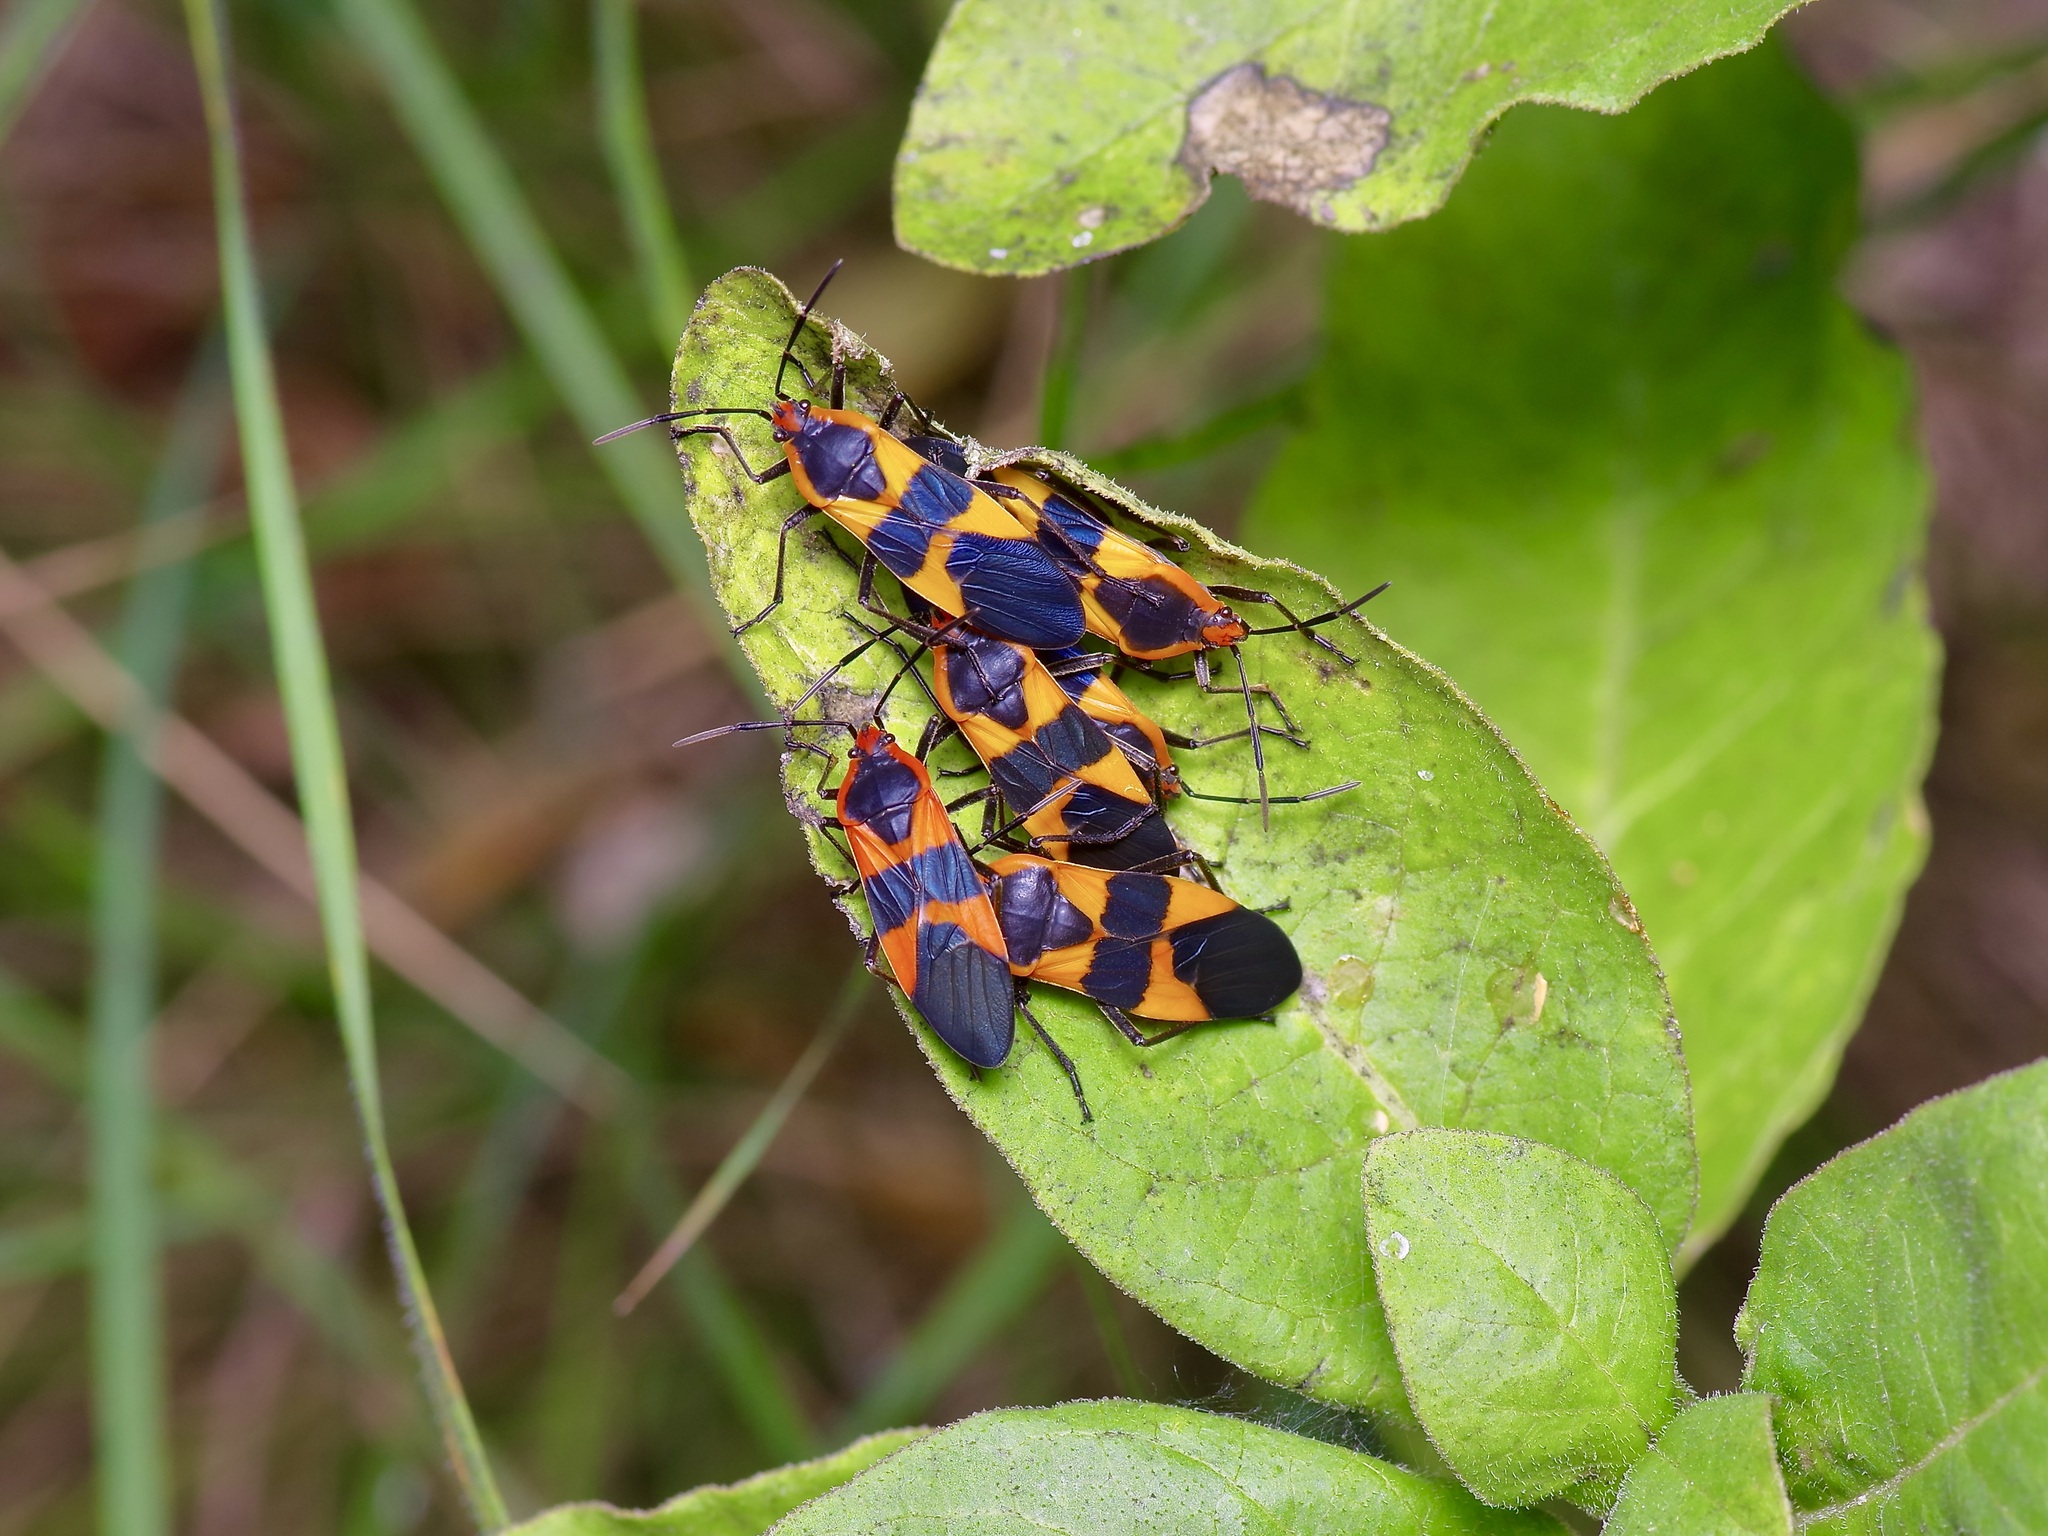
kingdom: Animalia
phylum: Arthropoda
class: Insecta
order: Hemiptera
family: Lygaeidae
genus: Oncopeltus
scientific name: Oncopeltus fasciatus
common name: Large milkweed bug
